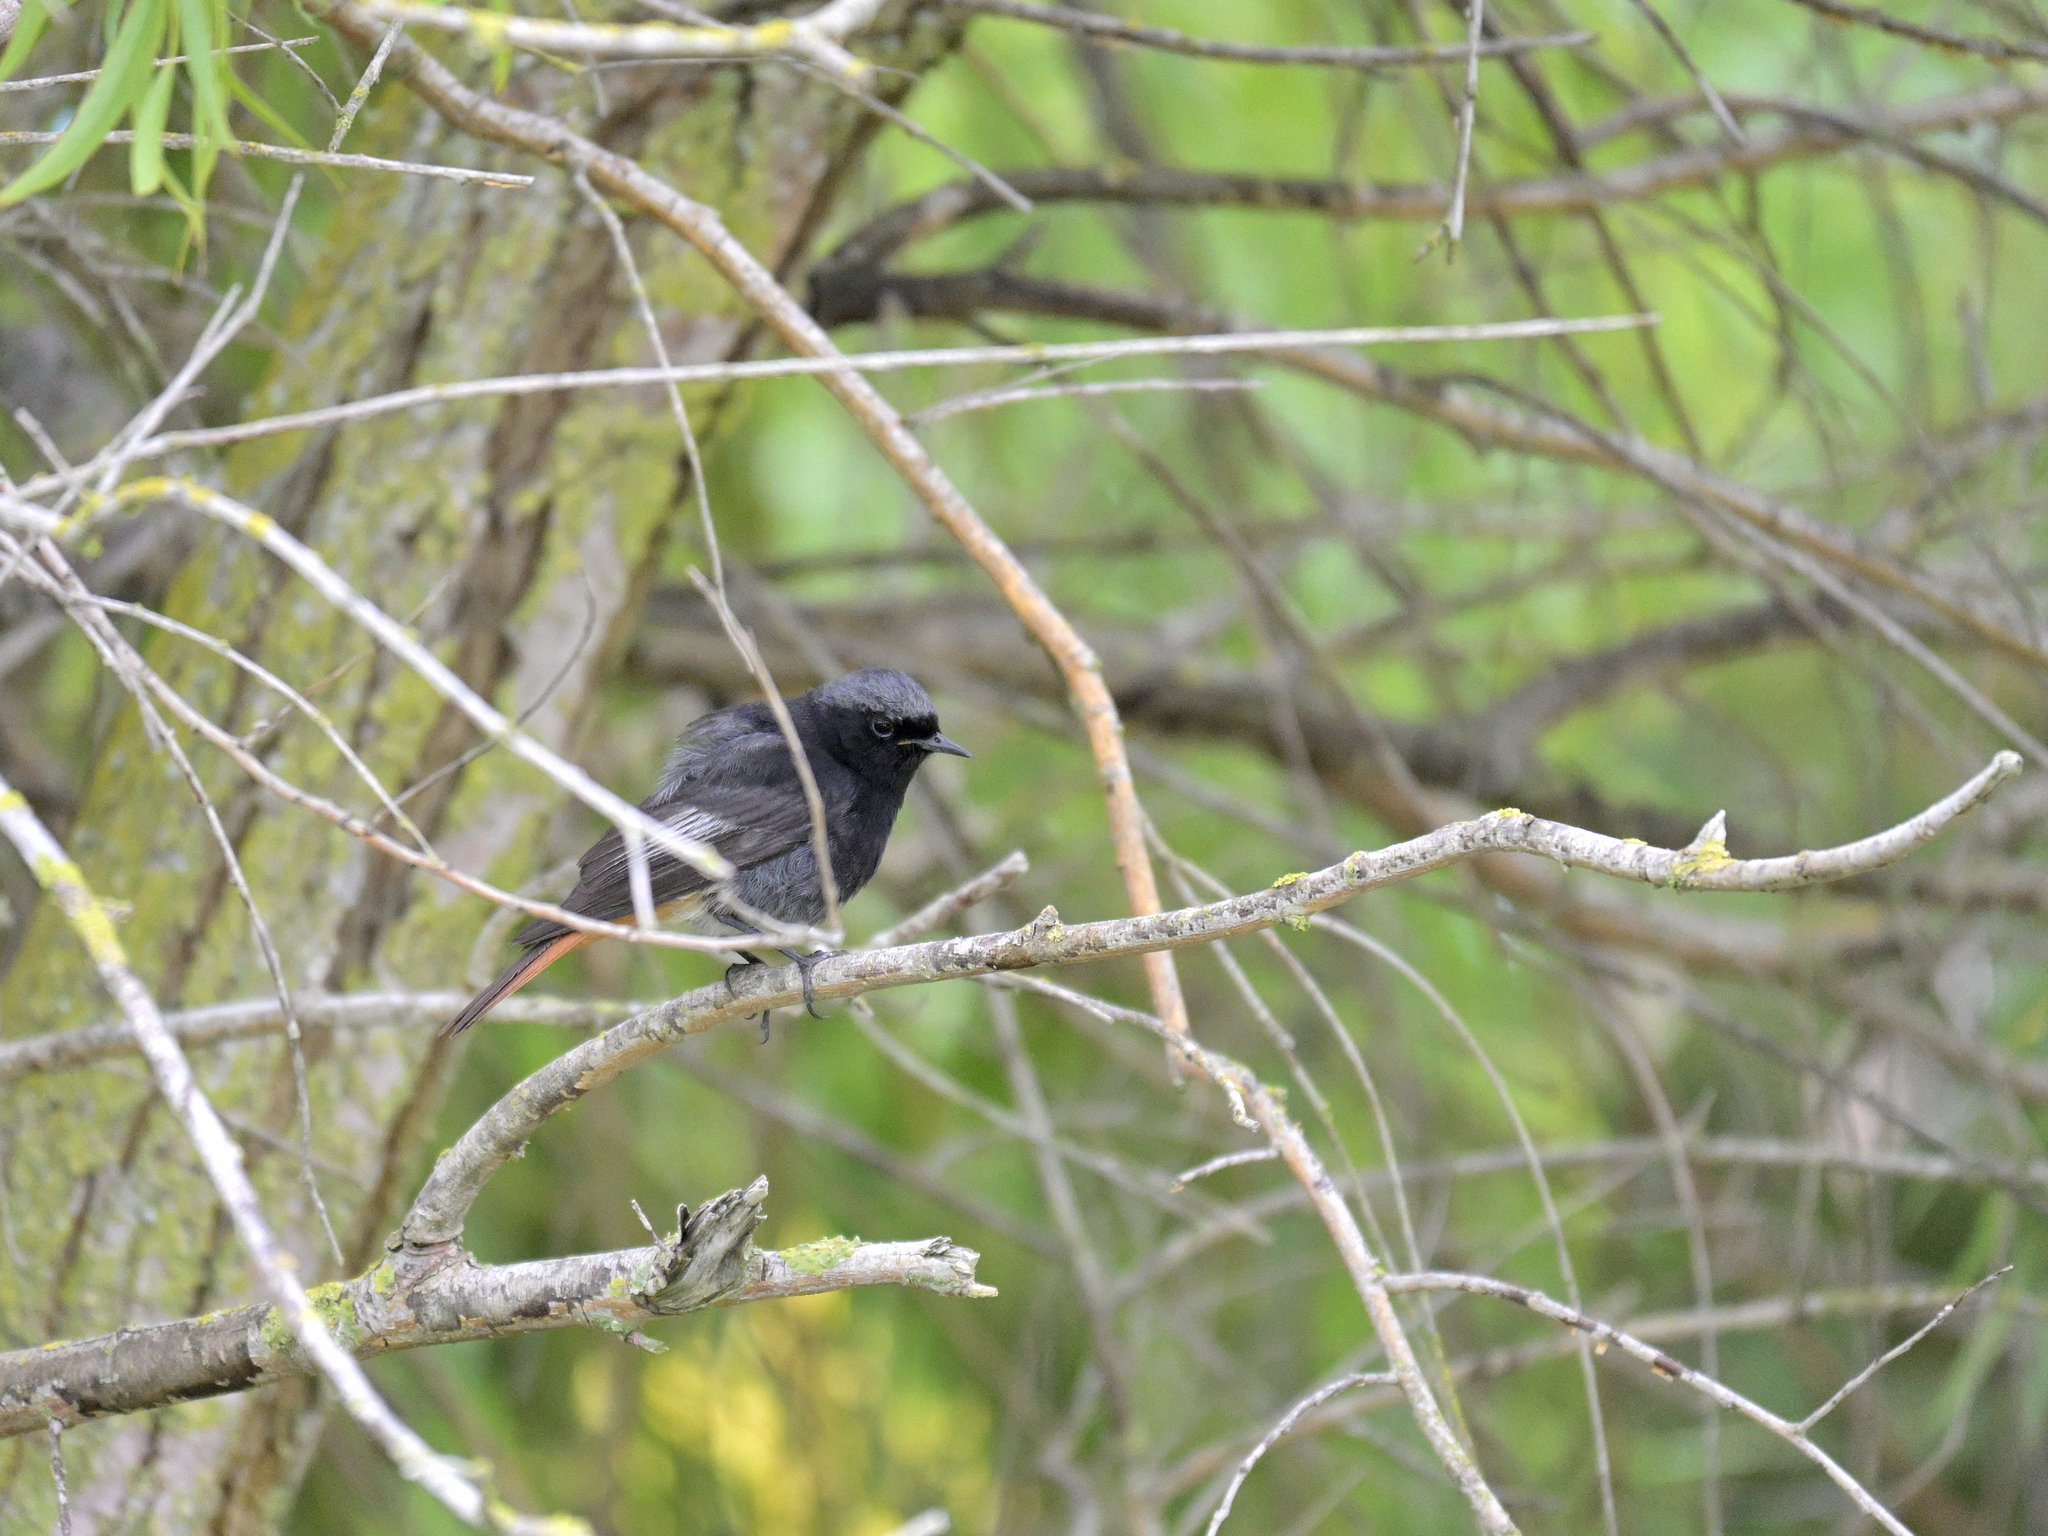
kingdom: Animalia
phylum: Chordata
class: Aves
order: Passeriformes
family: Muscicapidae
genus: Phoenicurus
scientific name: Phoenicurus ochruros
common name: Black redstart
